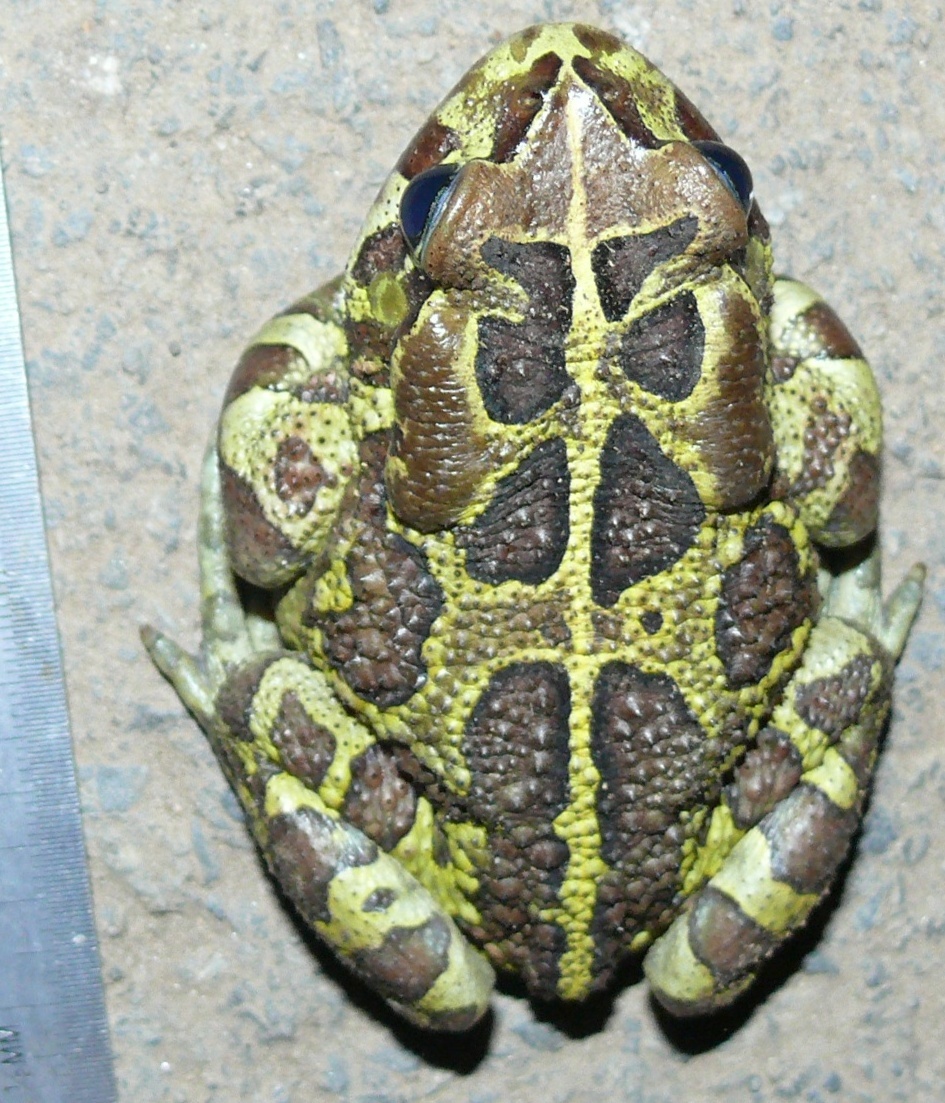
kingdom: Animalia
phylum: Chordata
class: Amphibia
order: Anura
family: Bufonidae
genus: Sclerophrys
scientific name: Sclerophrys pantherina
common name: Panther toad
